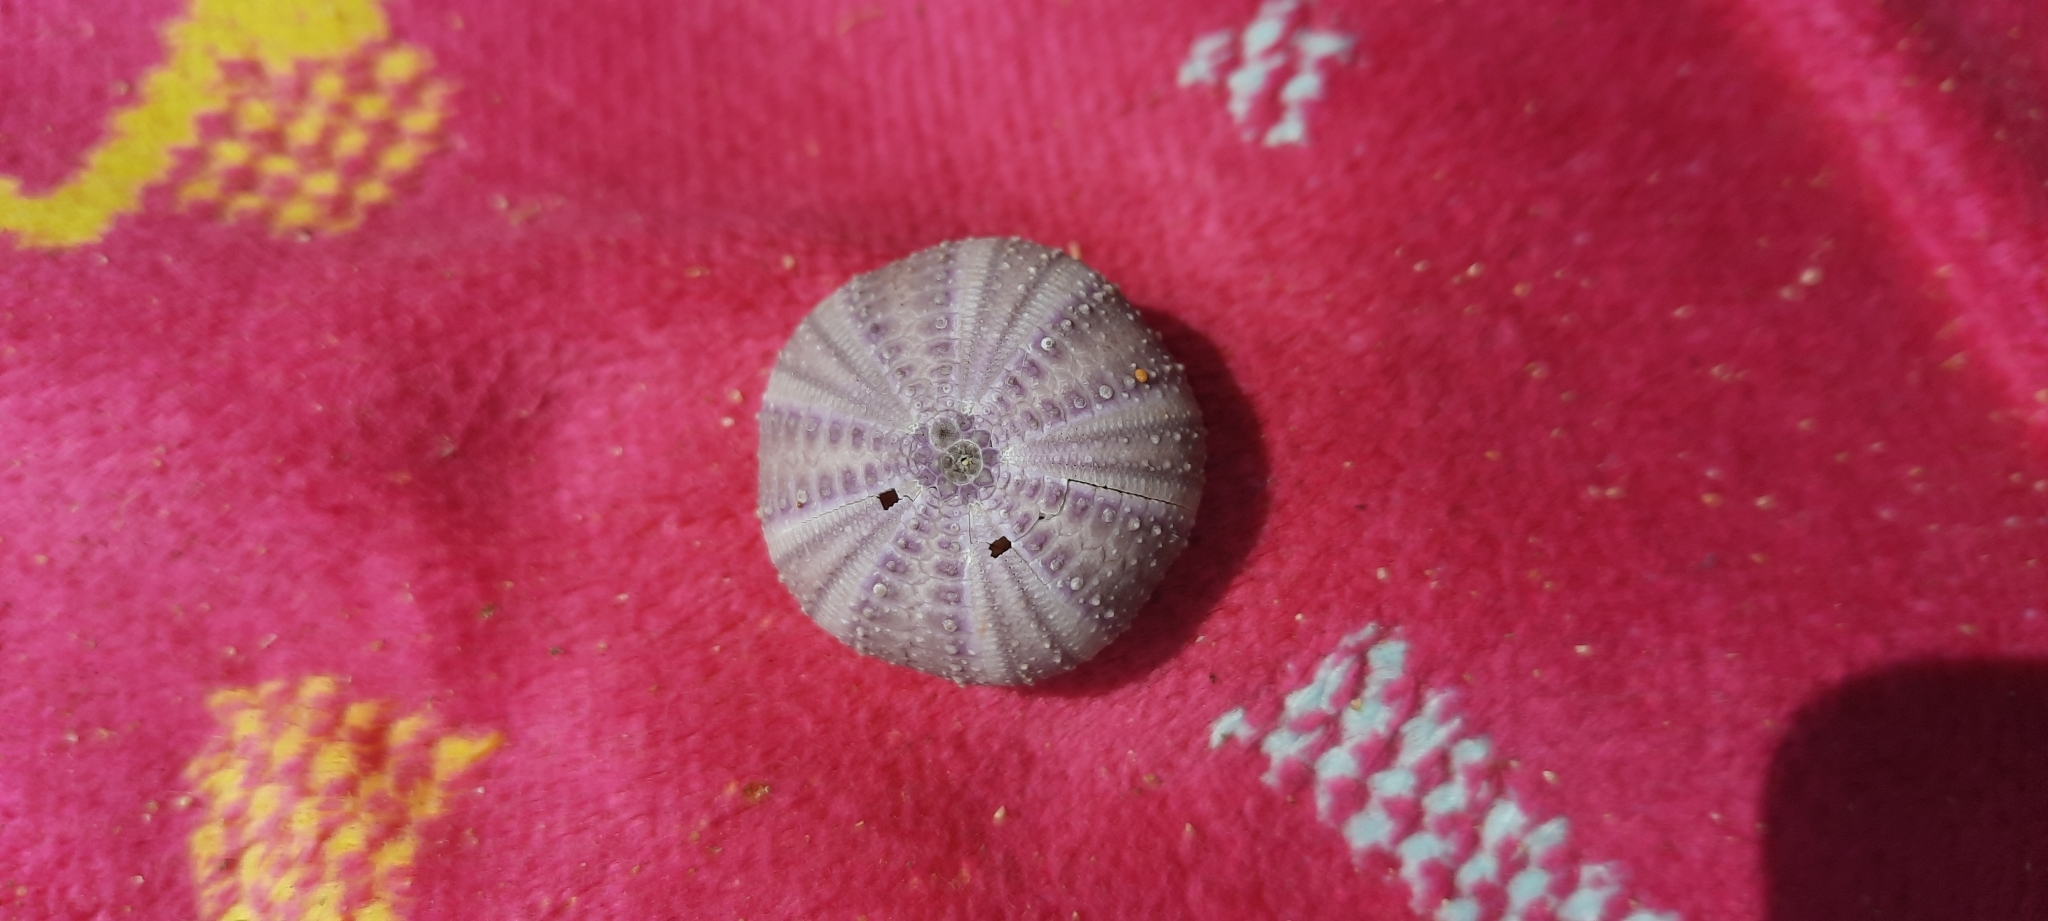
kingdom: Animalia
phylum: Echinodermata
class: Echinoidea
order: Camarodonta
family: Toxopneustidae
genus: Tripneustes
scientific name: Tripneustes gratilla
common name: Bischofsmützenseeigel
